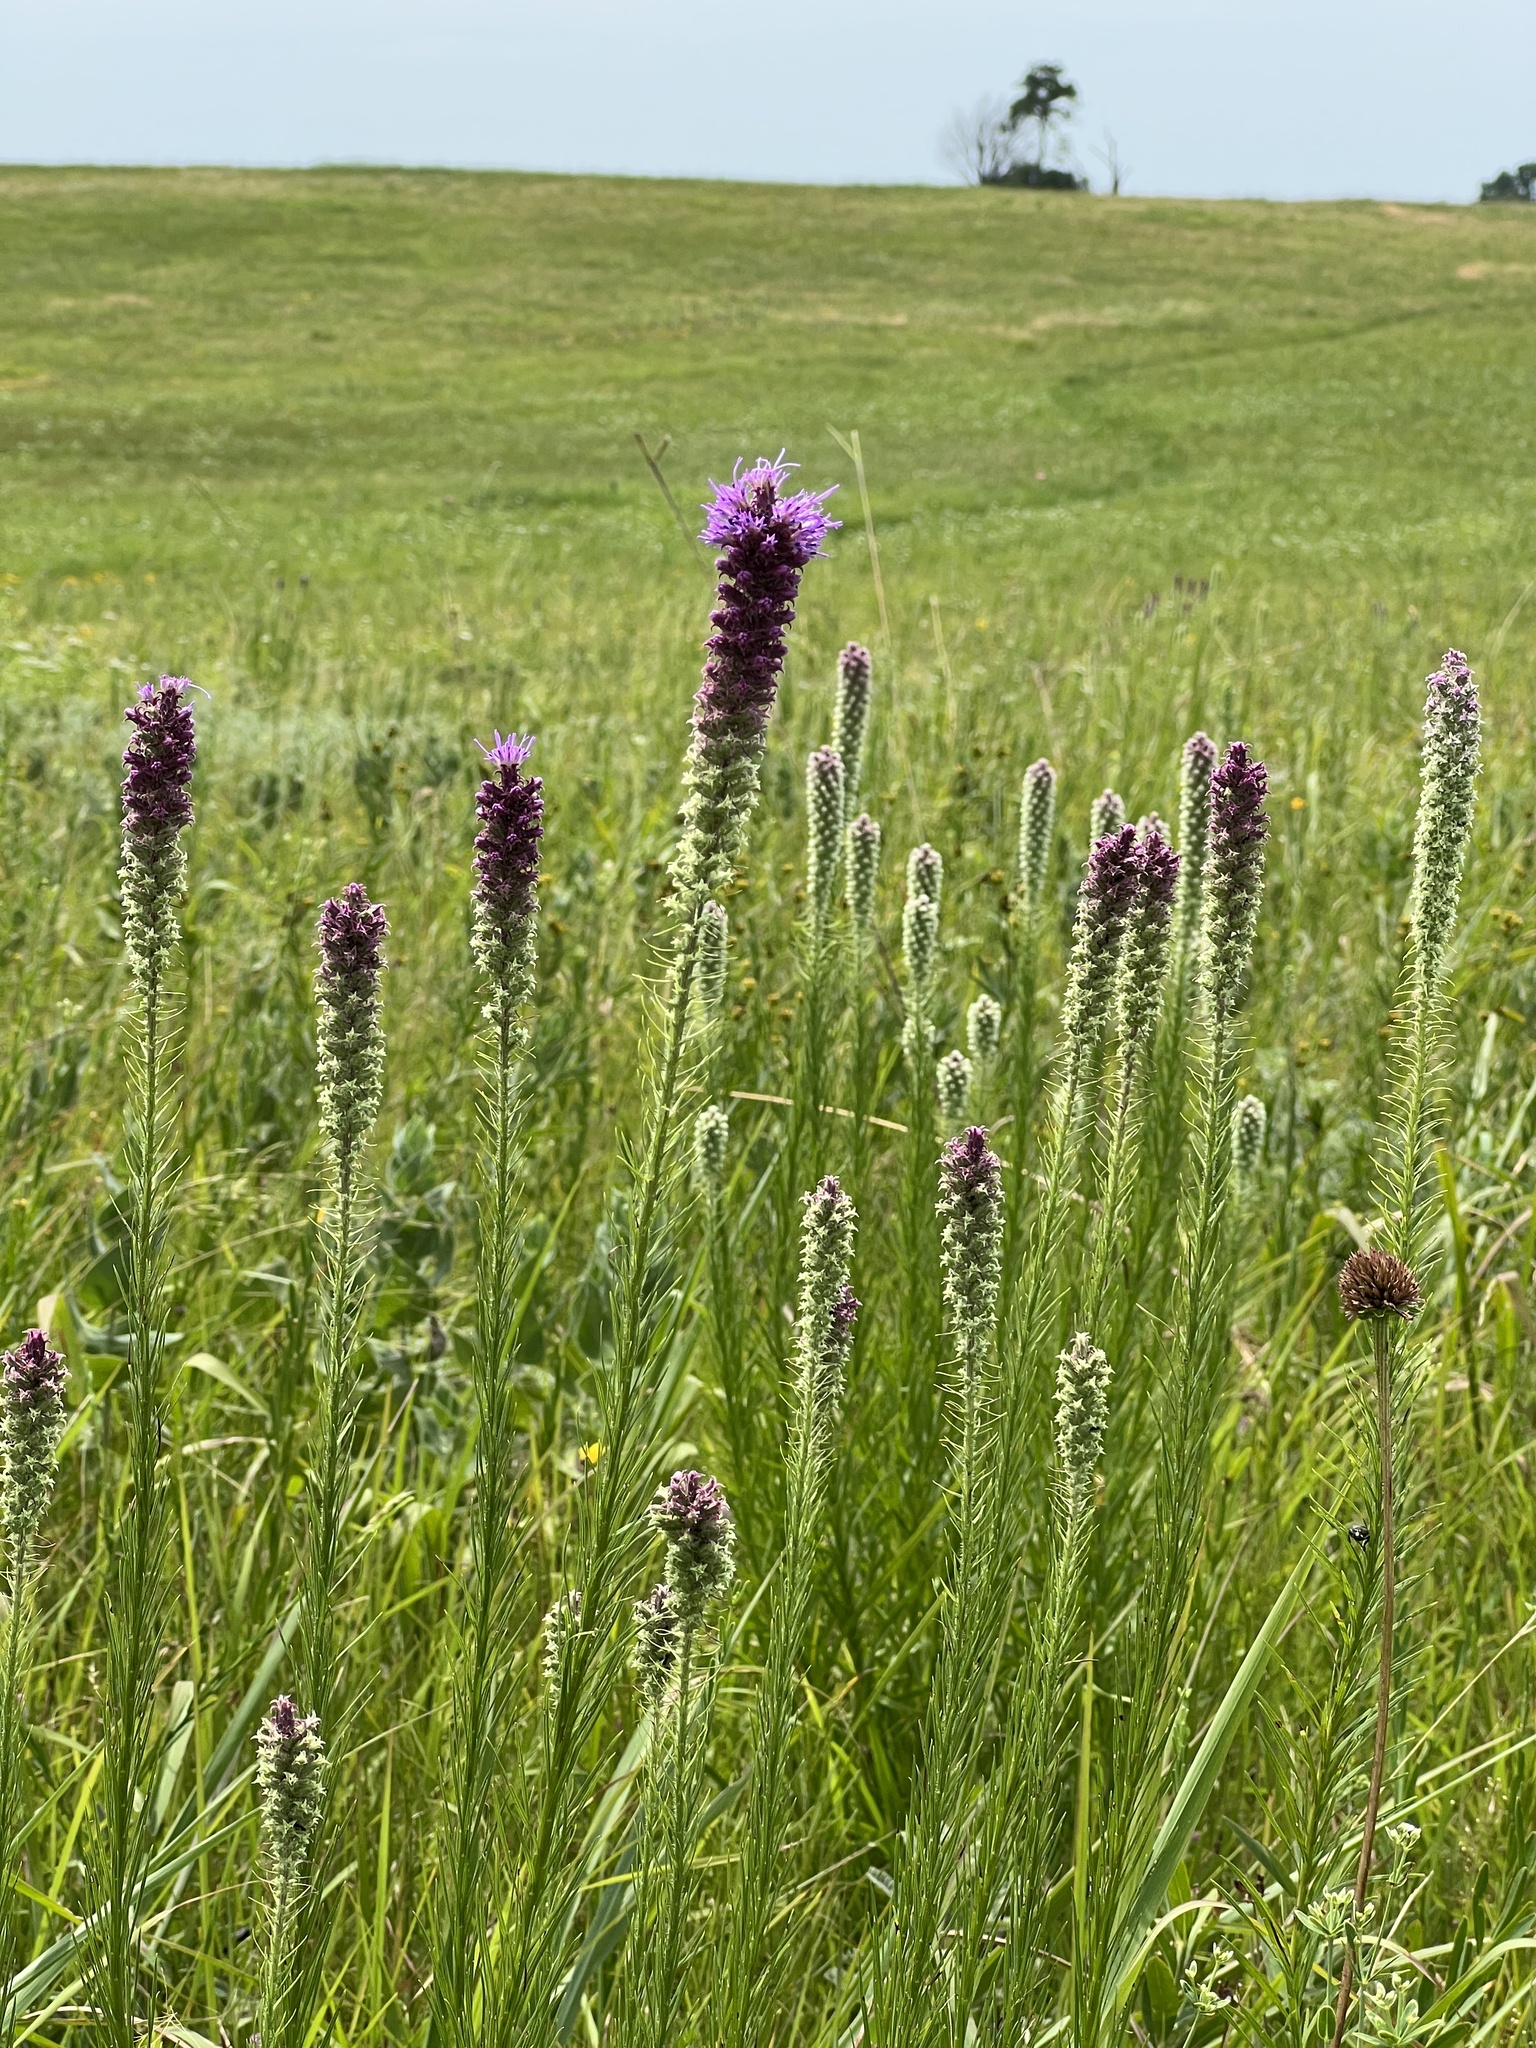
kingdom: Plantae
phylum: Tracheophyta
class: Magnoliopsida
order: Asterales
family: Asteraceae
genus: Liatris
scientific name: Liatris pycnostachya
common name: Cattail gayfeather
